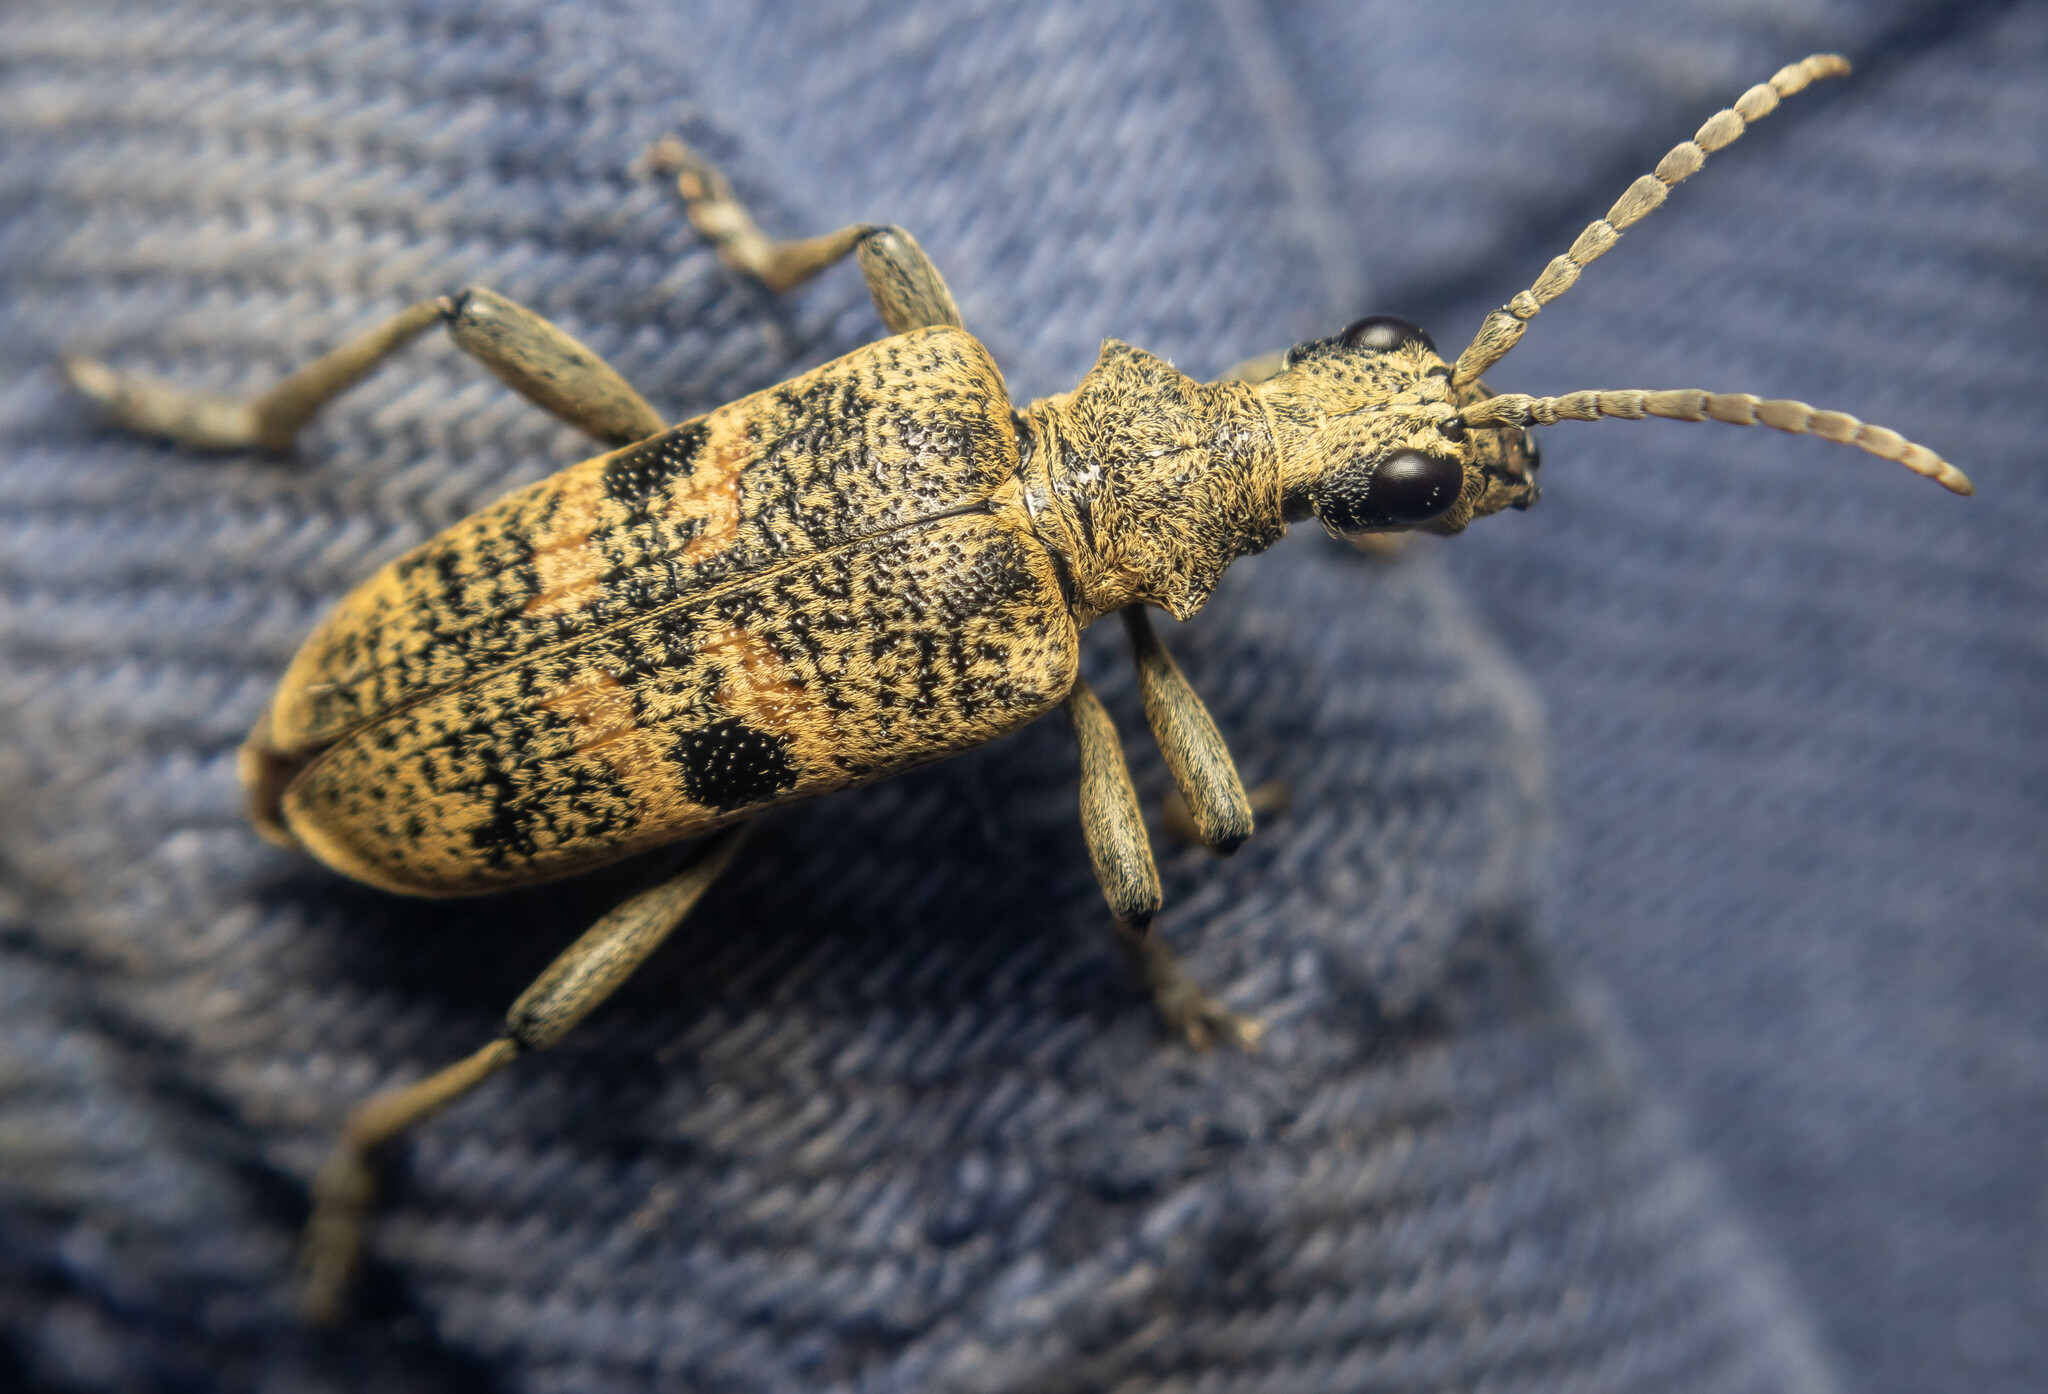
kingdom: Animalia
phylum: Arthropoda
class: Insecta
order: Coleoptera
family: Cerambycidae
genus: Rhagium
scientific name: Rhagium mordax
